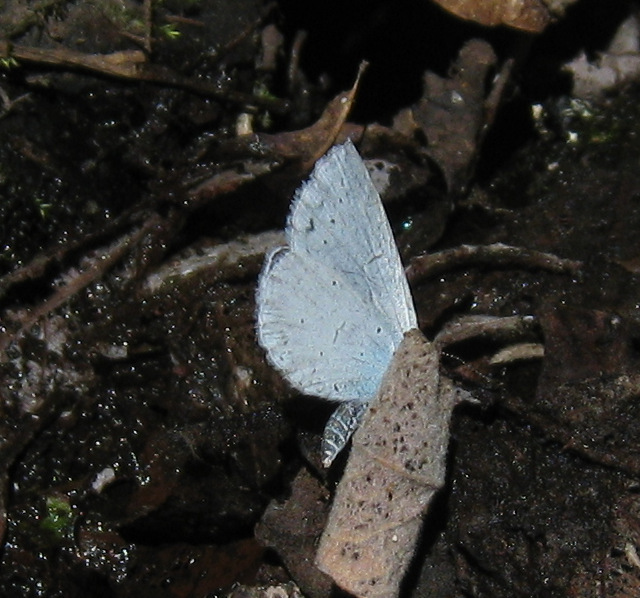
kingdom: Animalia
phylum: Arthropoda
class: Insecta
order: Lepidoptera
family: Lycaenidae
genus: Celastrina
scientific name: Celastrina argiolus
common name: Holly blue
